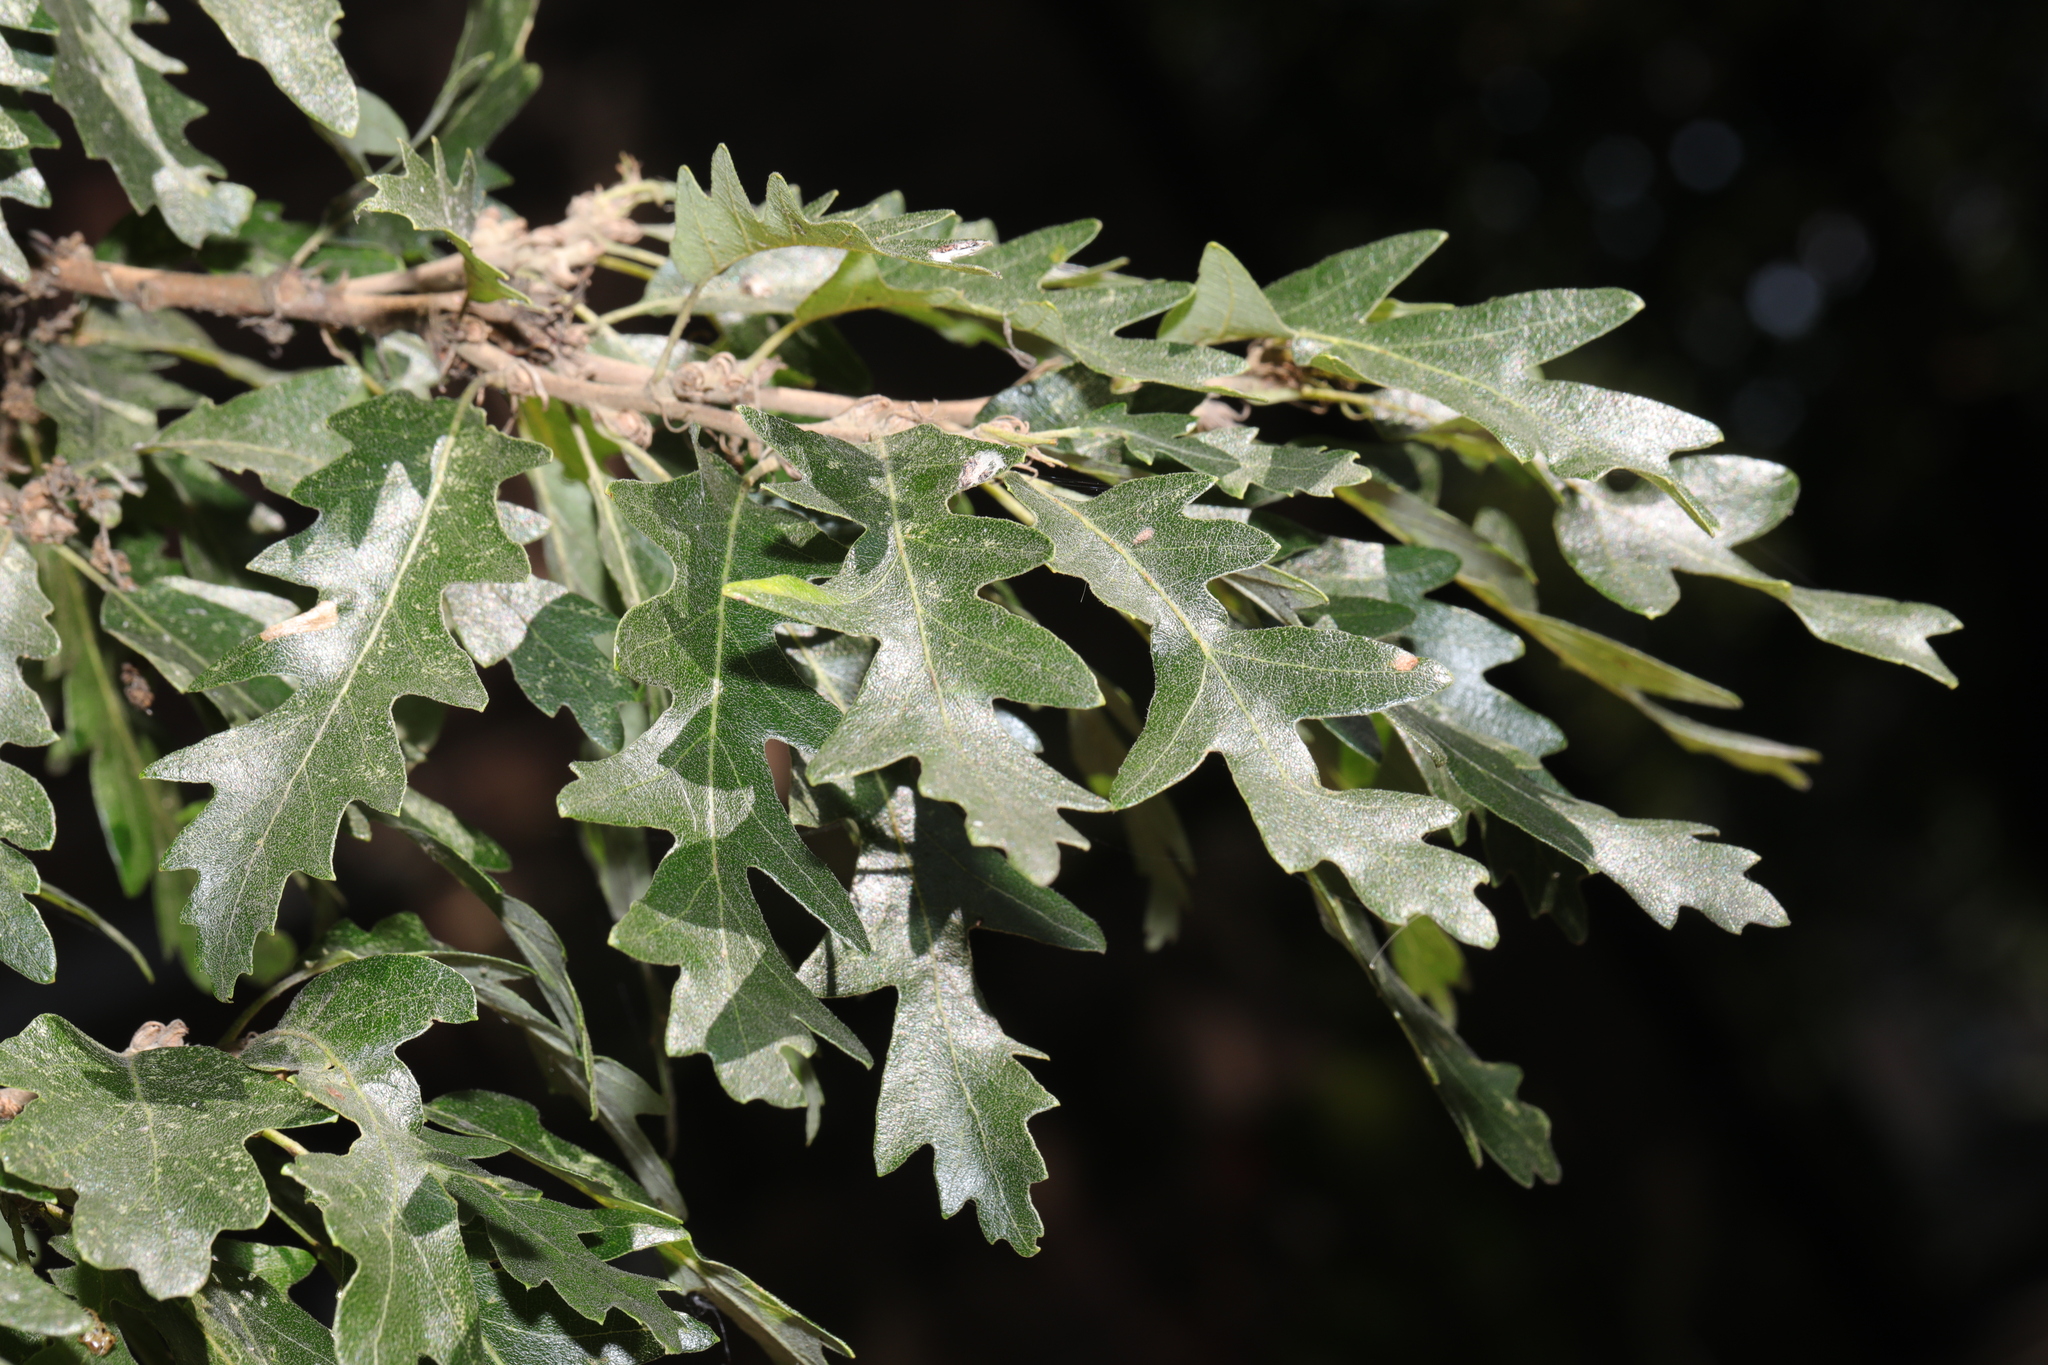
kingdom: Plantae
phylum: Tracheophyta
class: Magnoliopsida
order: Fagales
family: Fagaceae
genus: Quercus
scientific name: Quercus cerris
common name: Turkey oak
